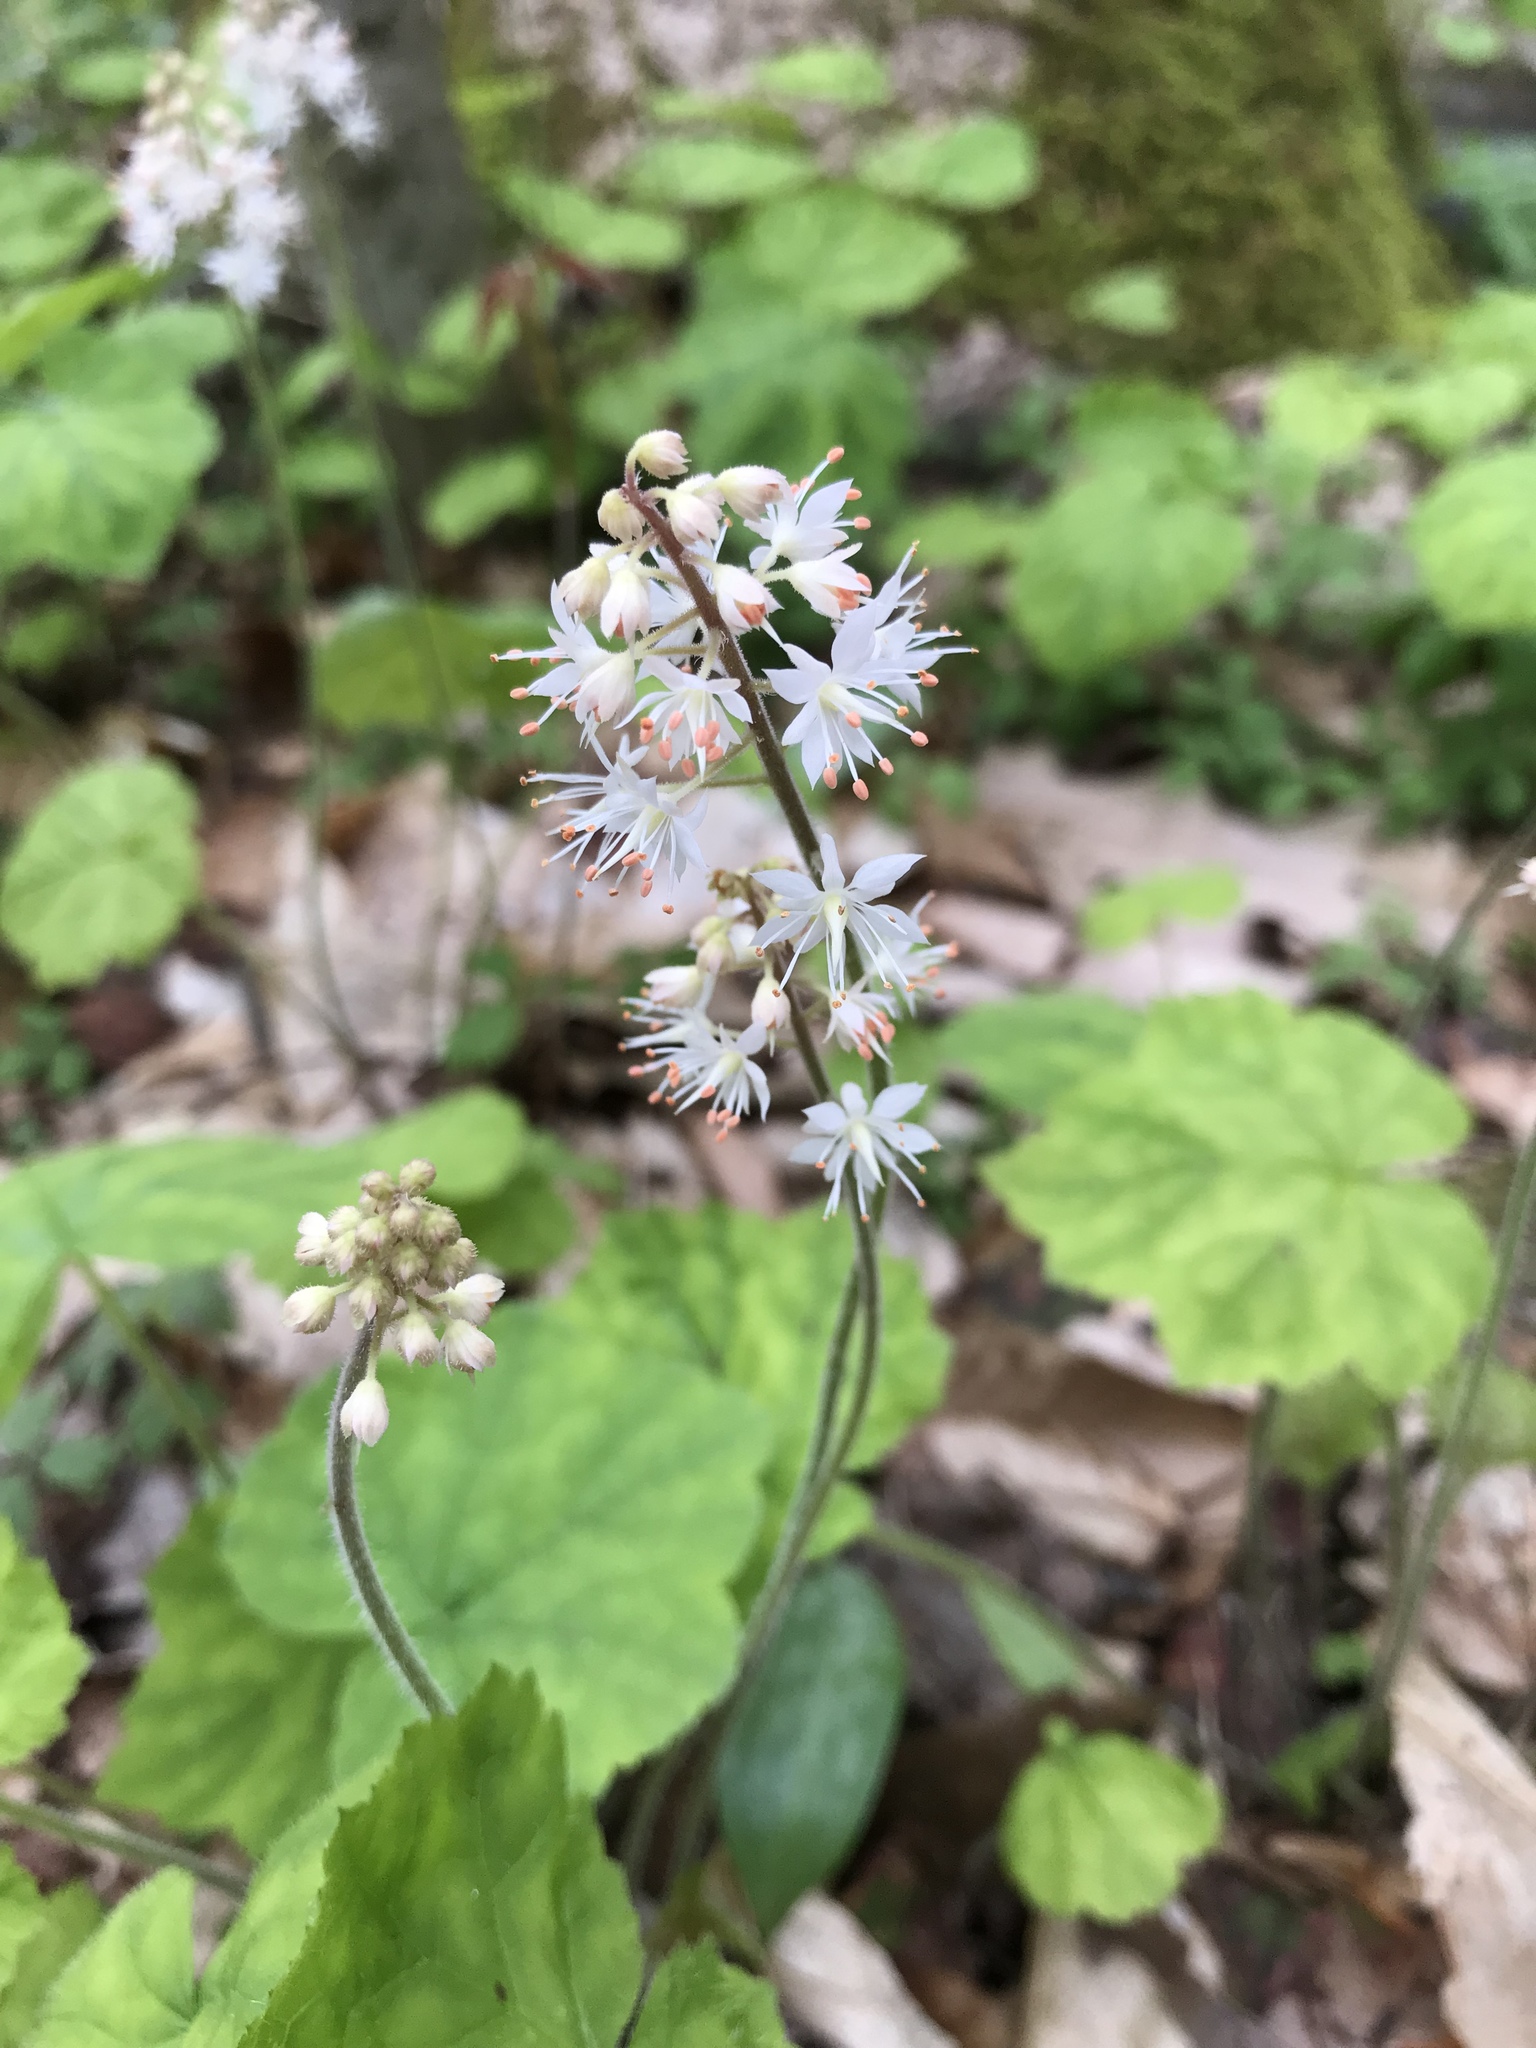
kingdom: Plantae
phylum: Tracheophyta
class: Magnoliopsida
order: Saxifragales
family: Saxifragaceae
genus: Tiarella
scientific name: Tiarella stolonifera
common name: Stoloniferous foamflower
